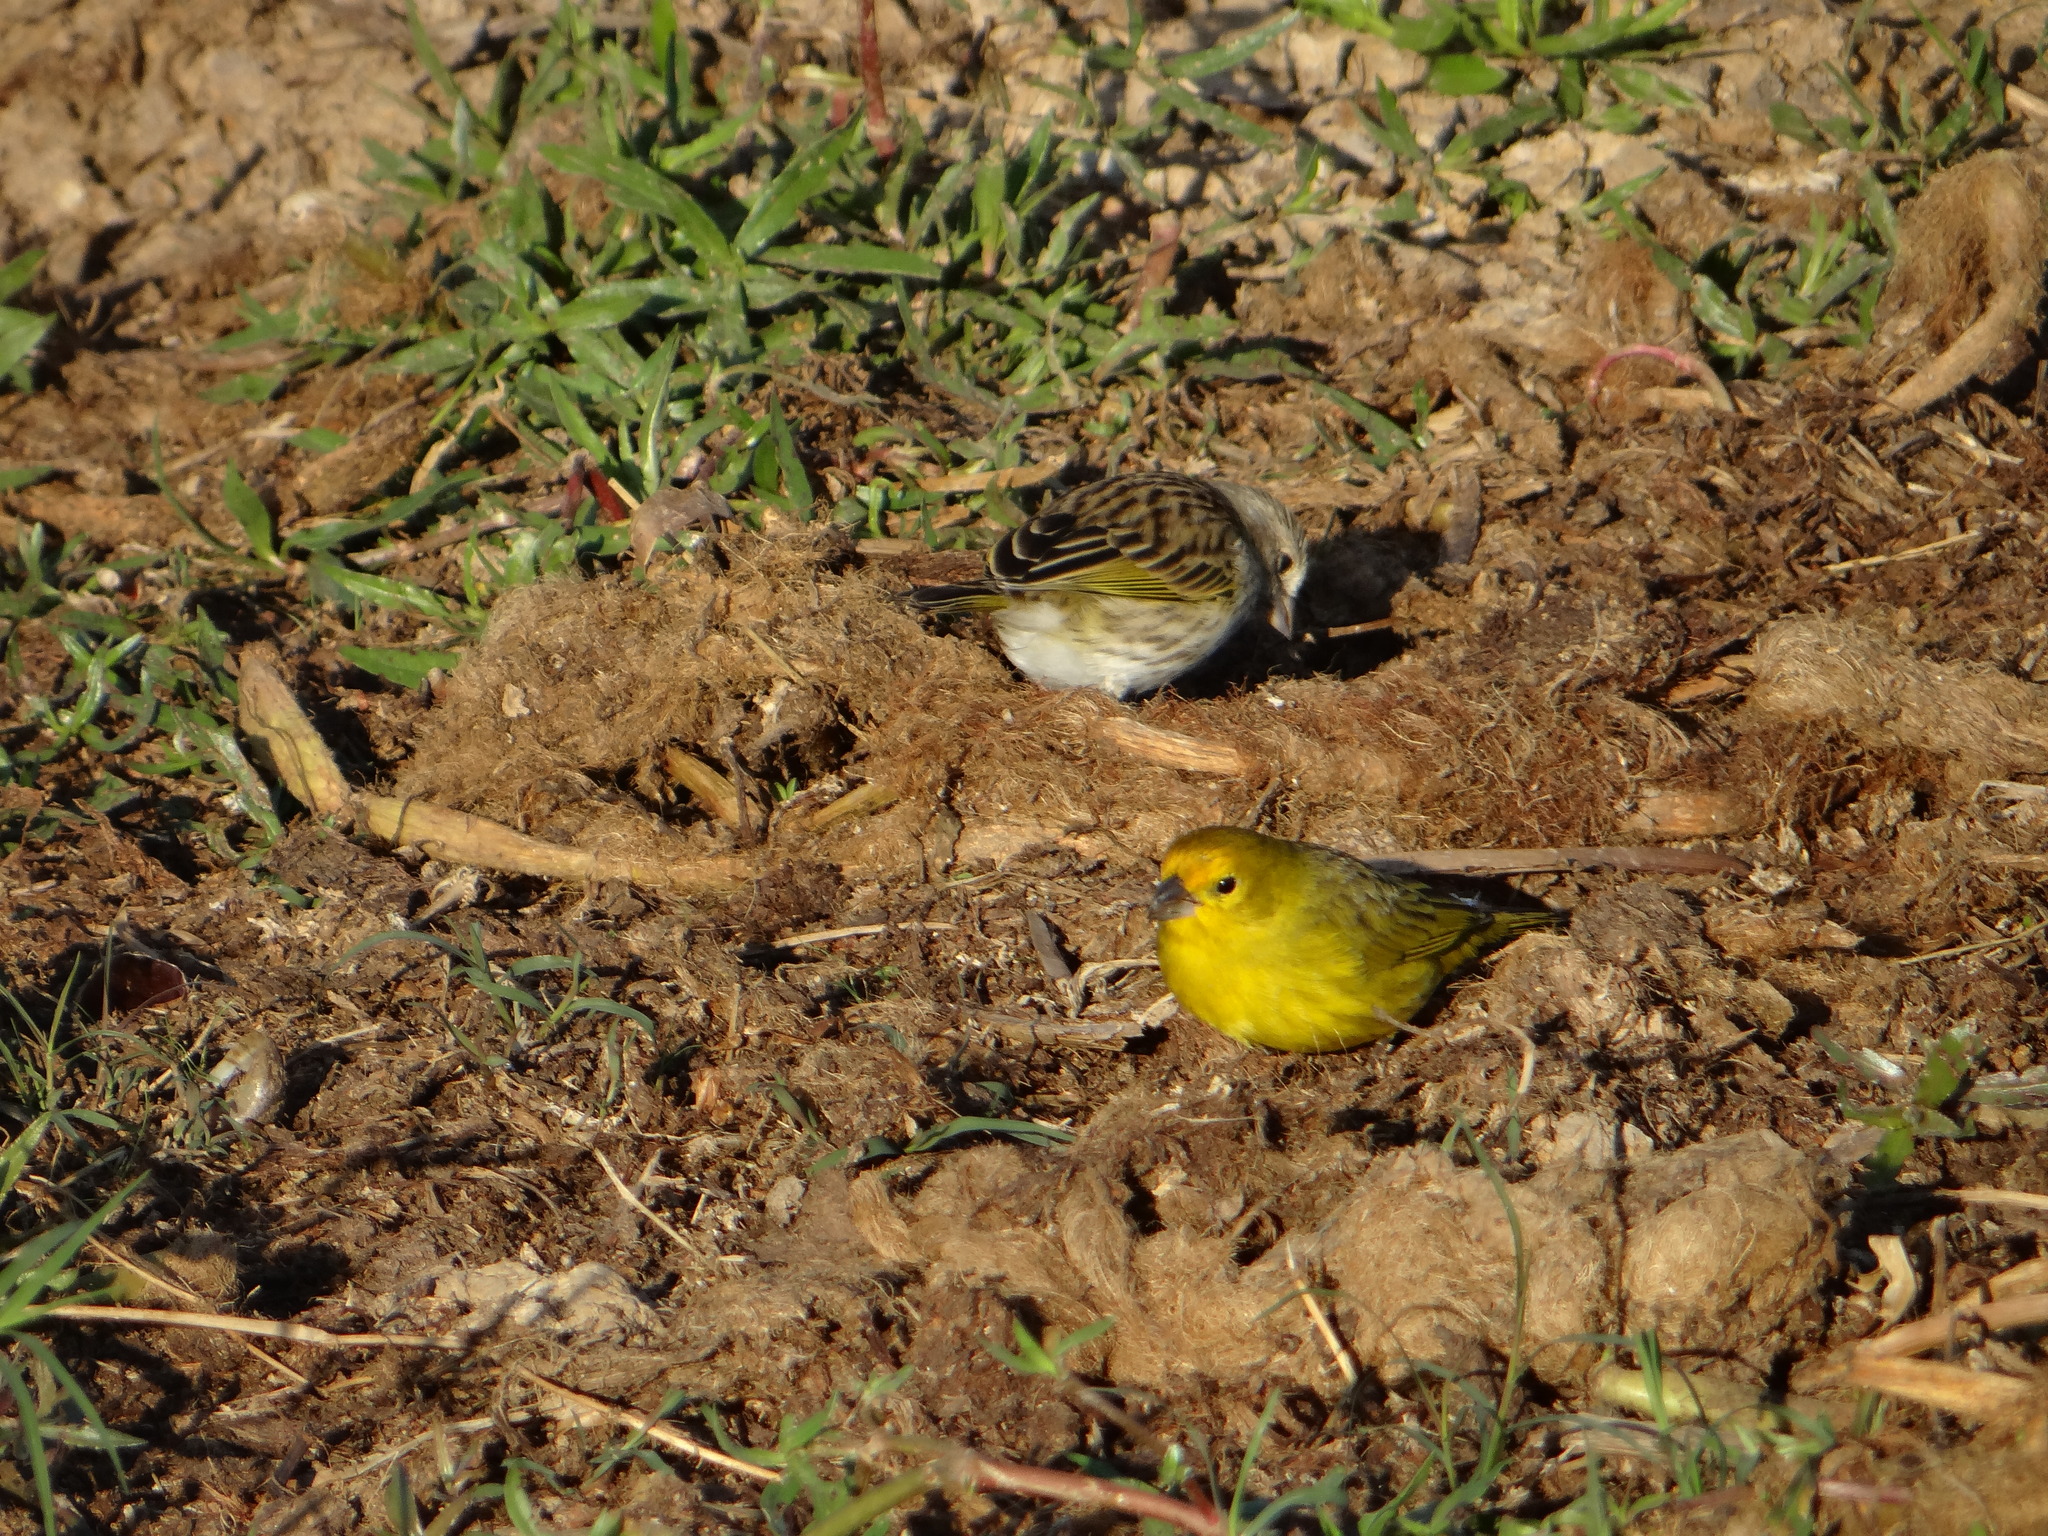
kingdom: Animalia
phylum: Chordata
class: Aves
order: Passeriformes
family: Thraupidae
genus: Sicalis
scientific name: Sicalis flaveola
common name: Saffron finch
